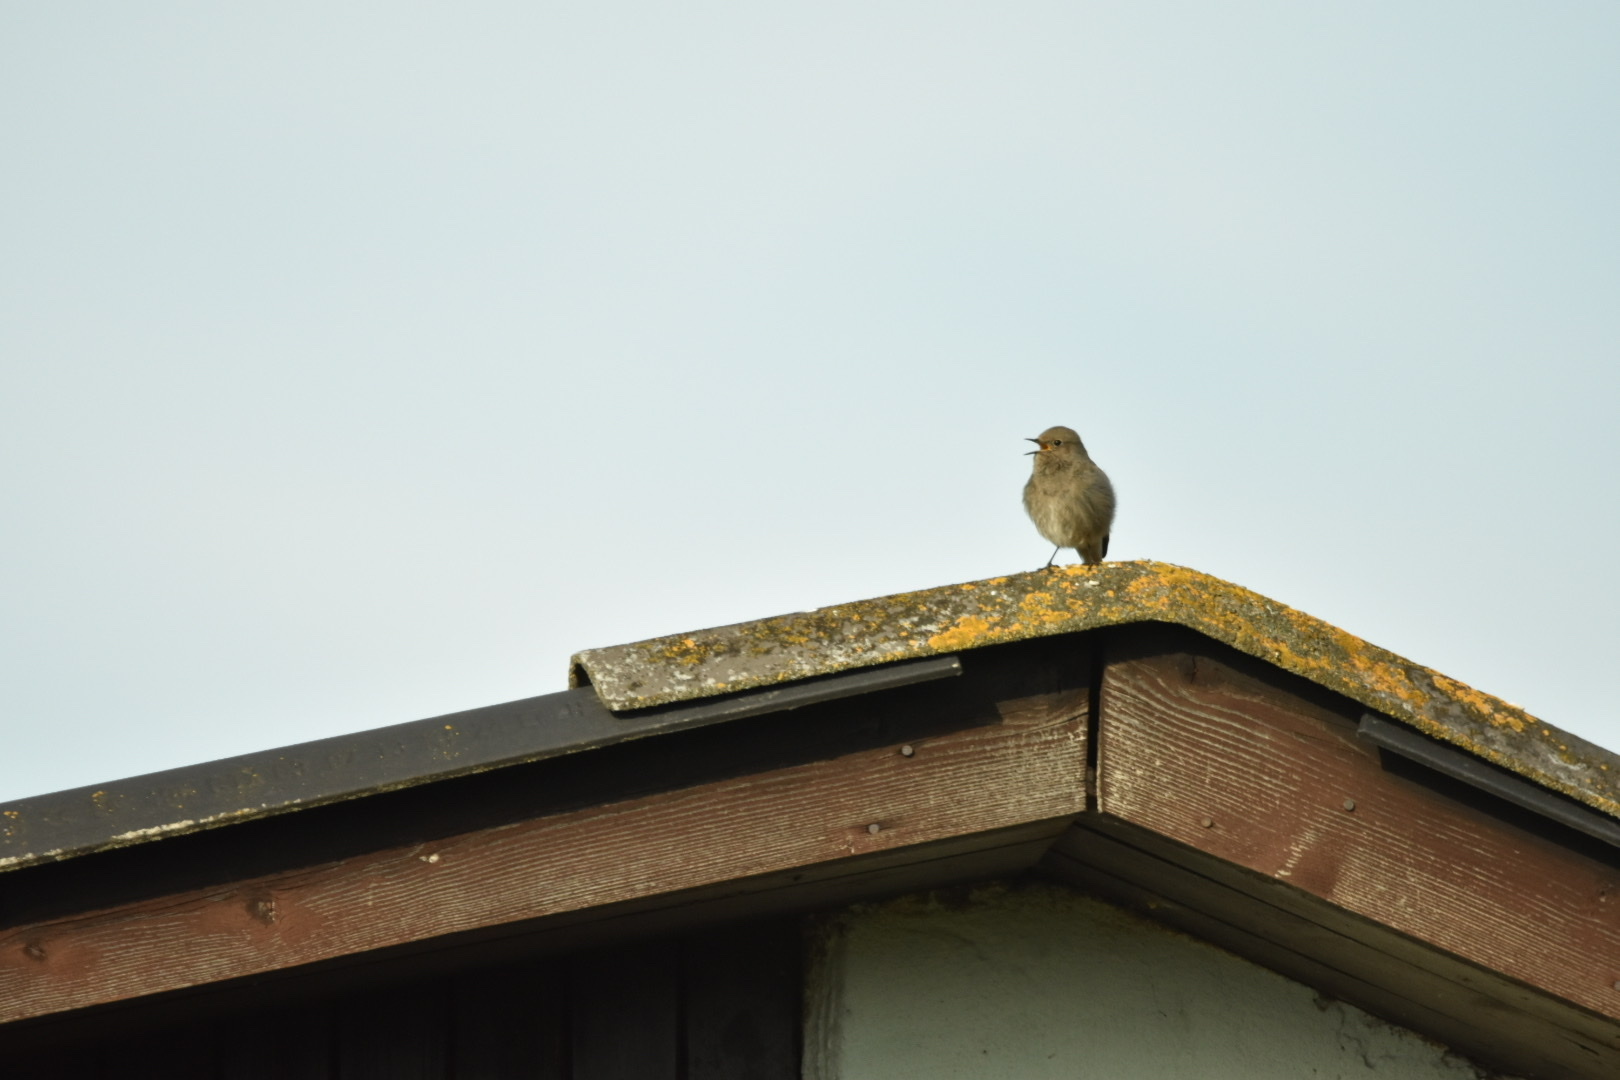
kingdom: Animalia
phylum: Chordata
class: Aves
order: Passeriformes
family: Muscicapidae
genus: Phoenicurus
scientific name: Phoenicurus ochruros
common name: Black redstart
